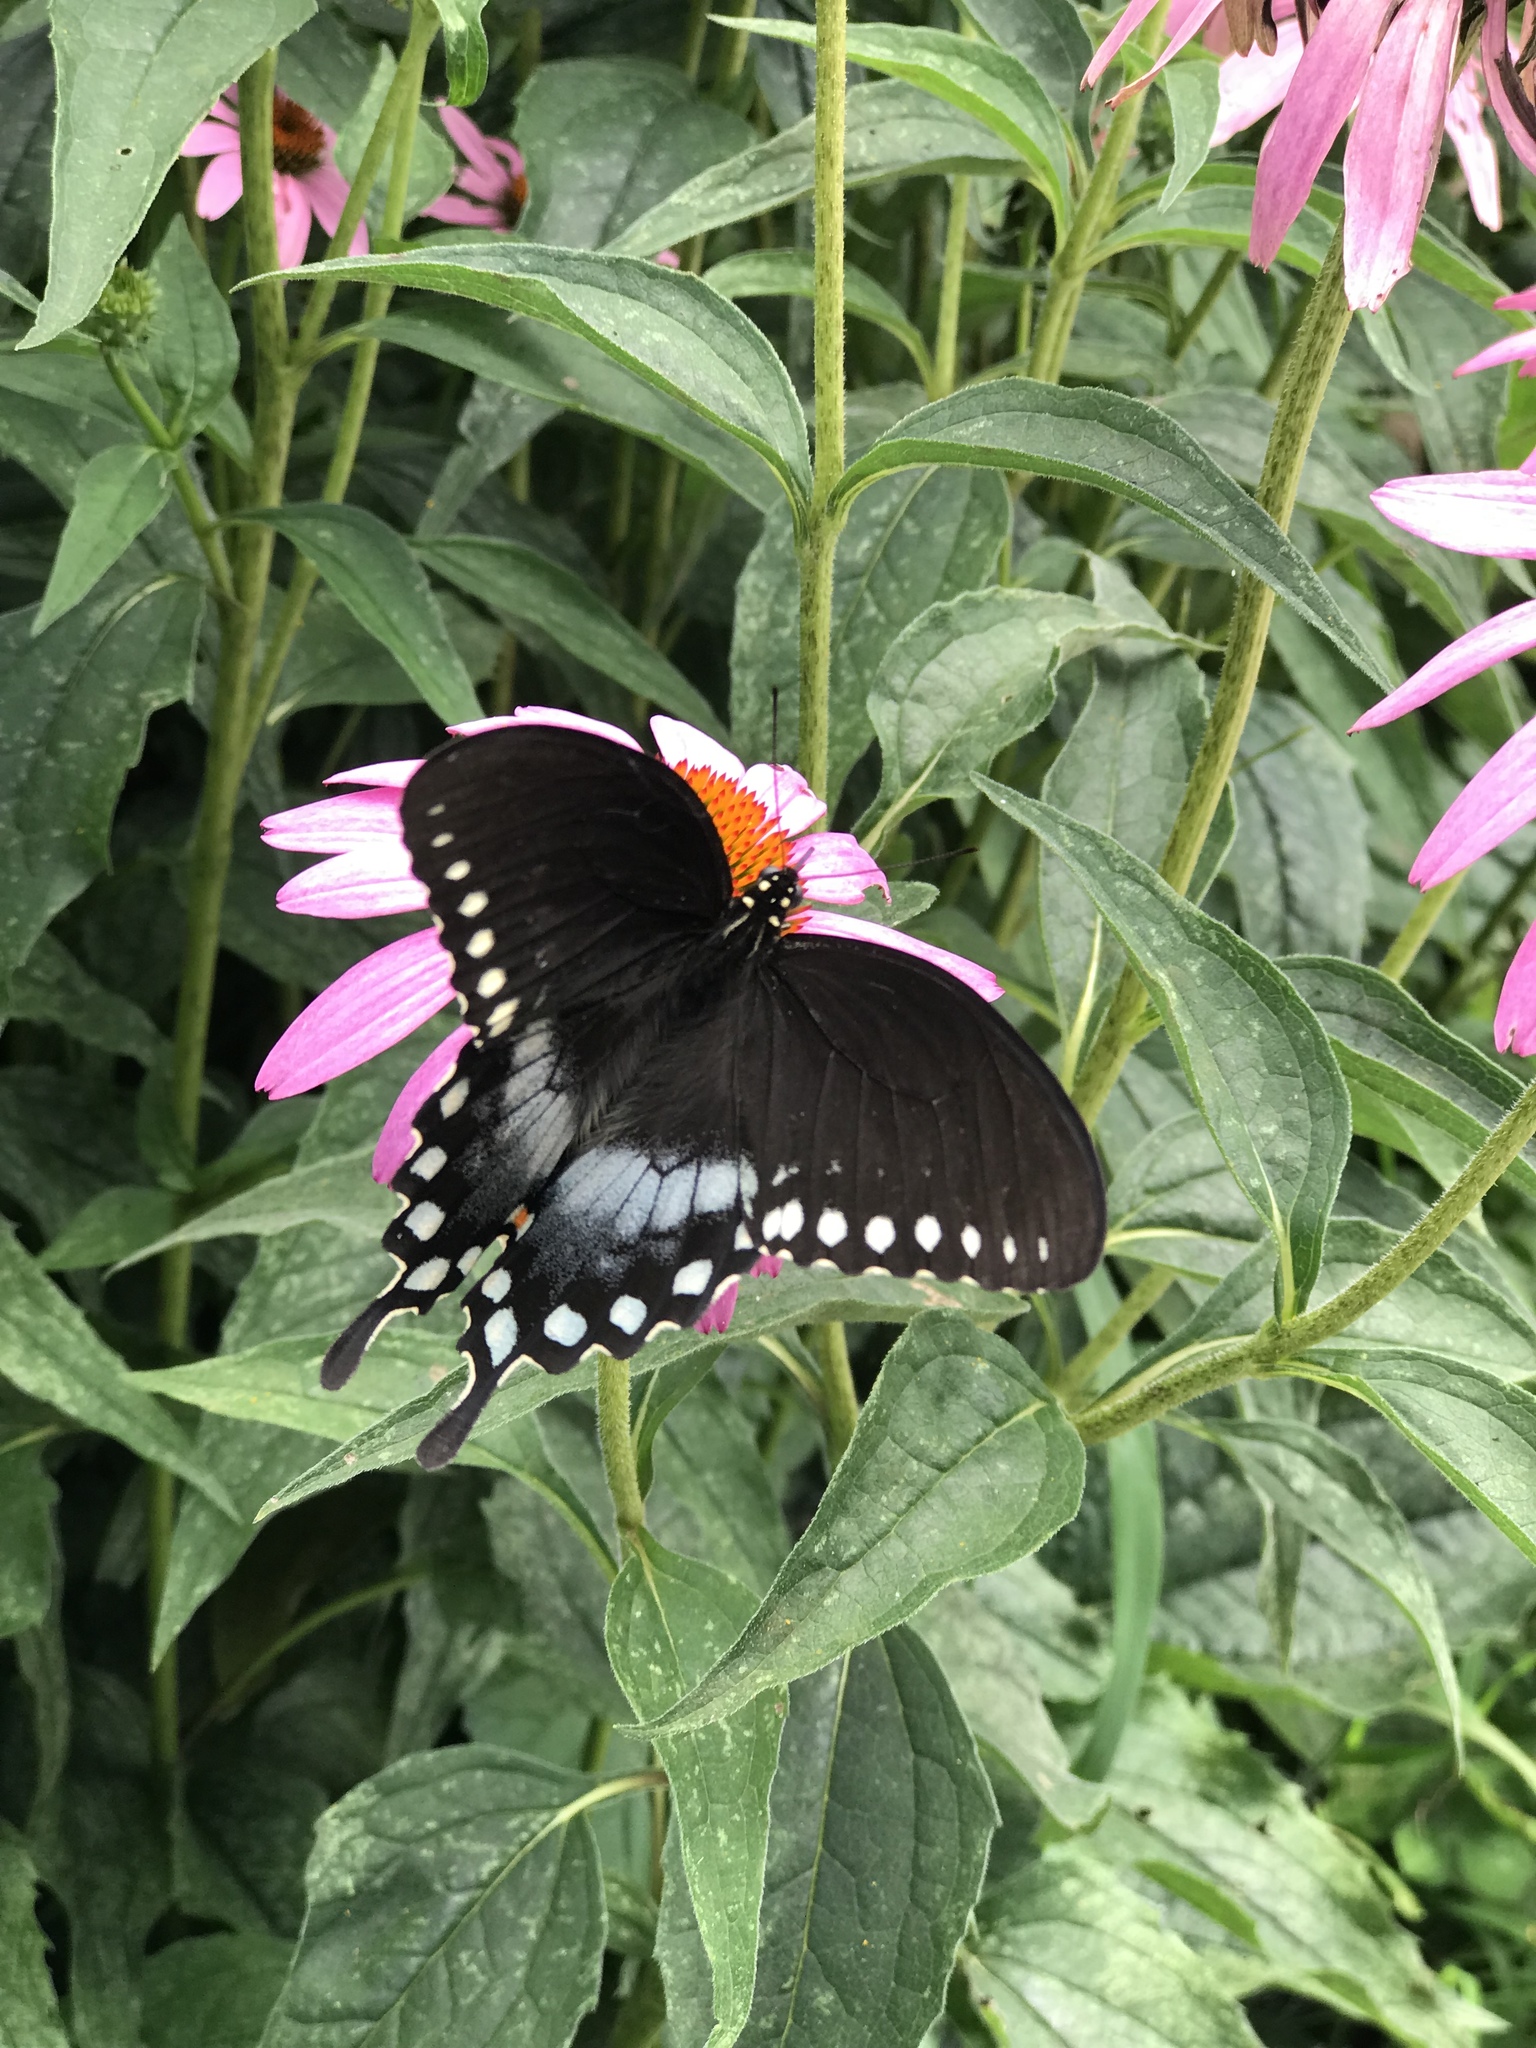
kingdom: Animalia
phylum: Arthropoda
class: Insecta
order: Lepidoptera
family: Papilionidae
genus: Papilio
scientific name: Papilio troilus
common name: Spicebush swallowtail
